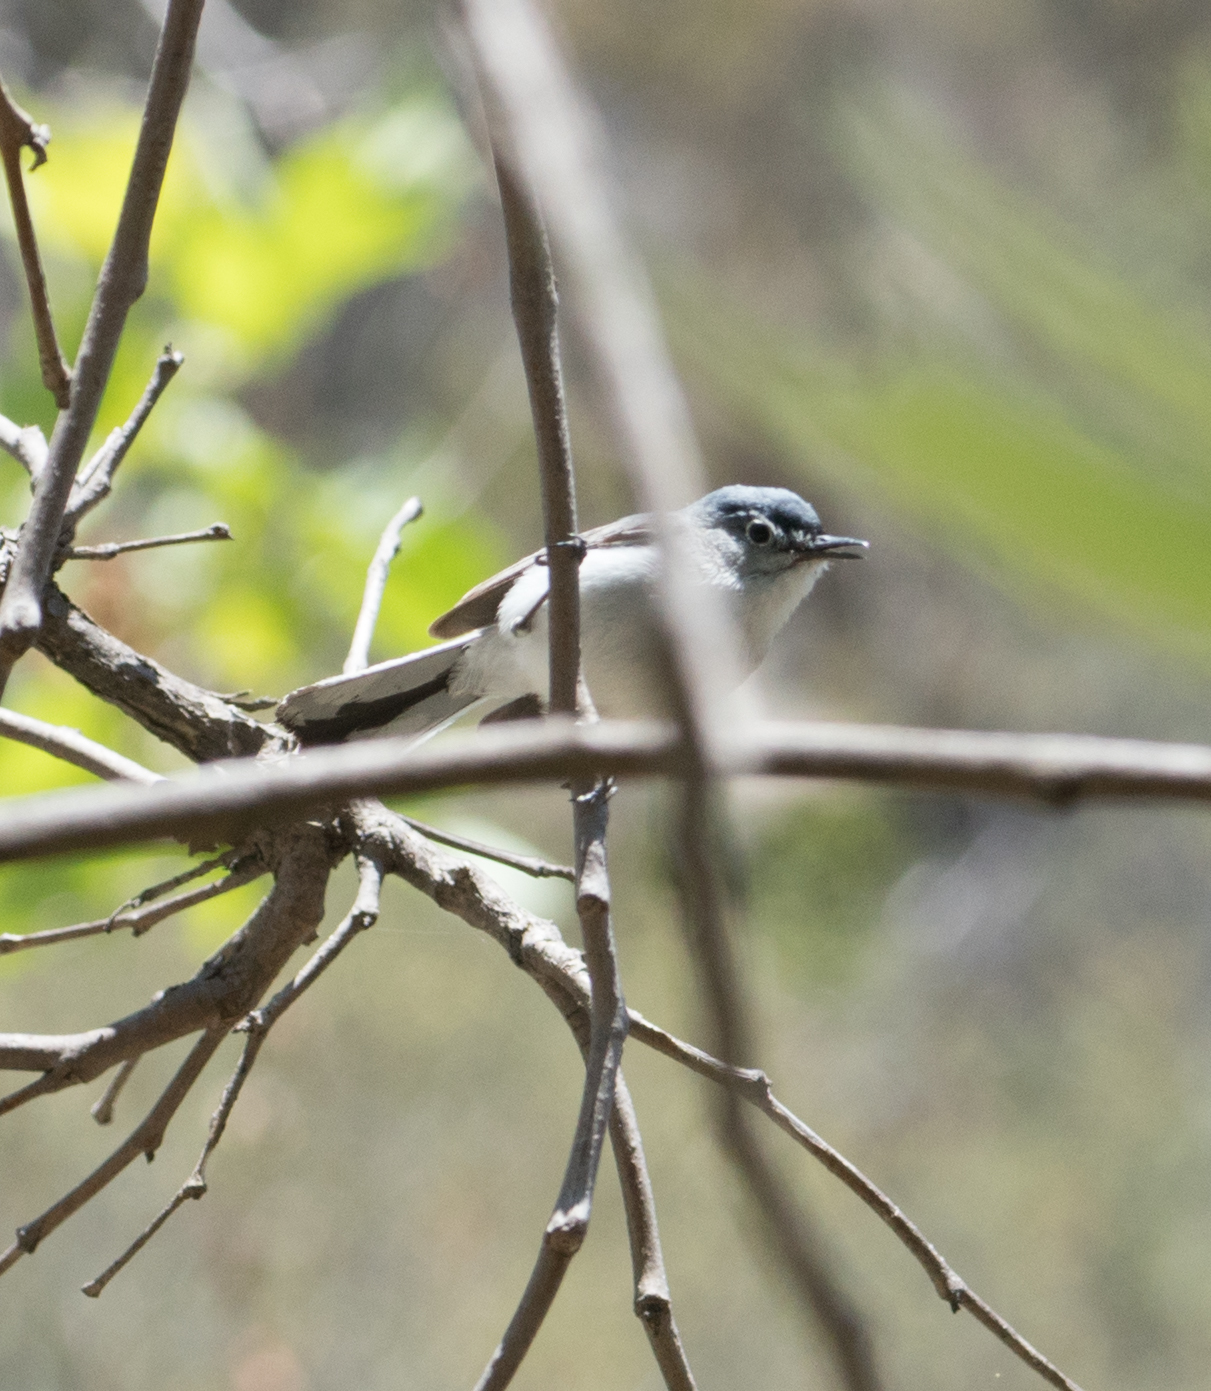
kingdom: Animalia
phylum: Chordata
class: Aves
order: Passeriformes
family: Polioptilidae
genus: Polioptila
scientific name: Polioptila caerulea
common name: Blue-gray gnatcatcher
